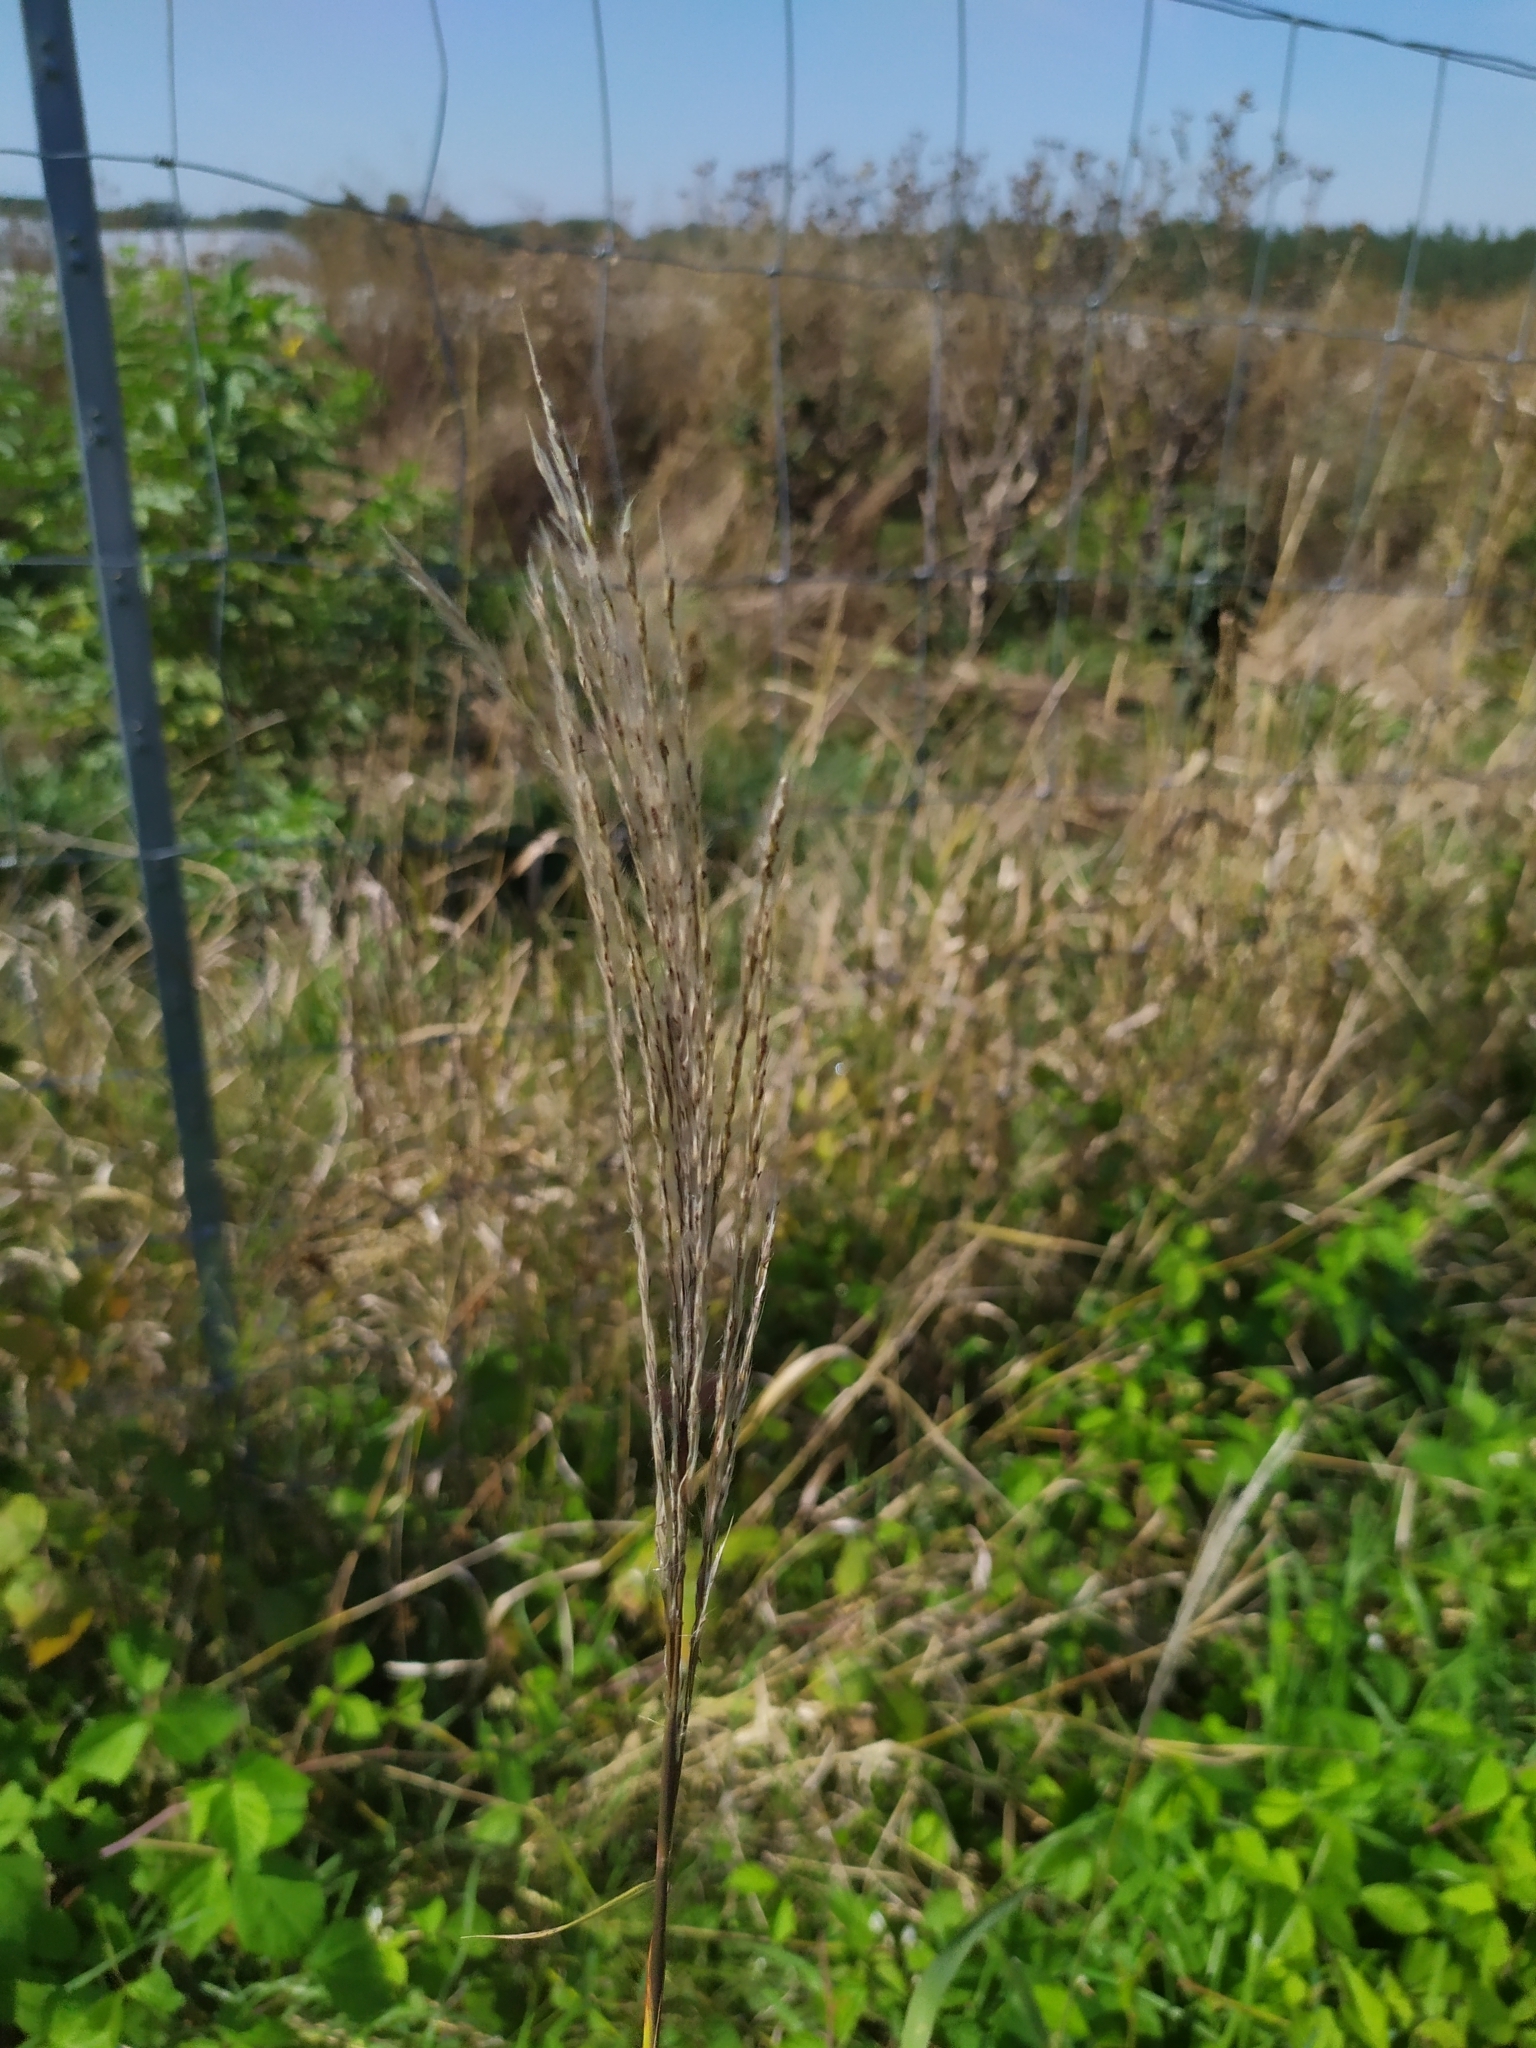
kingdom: Plantae
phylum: Tracheophyta
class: Liliopsida
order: Poales
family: Poaceae
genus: Miscanthus
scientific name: Miscanthus sacchariflorus
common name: Amur silver grass
